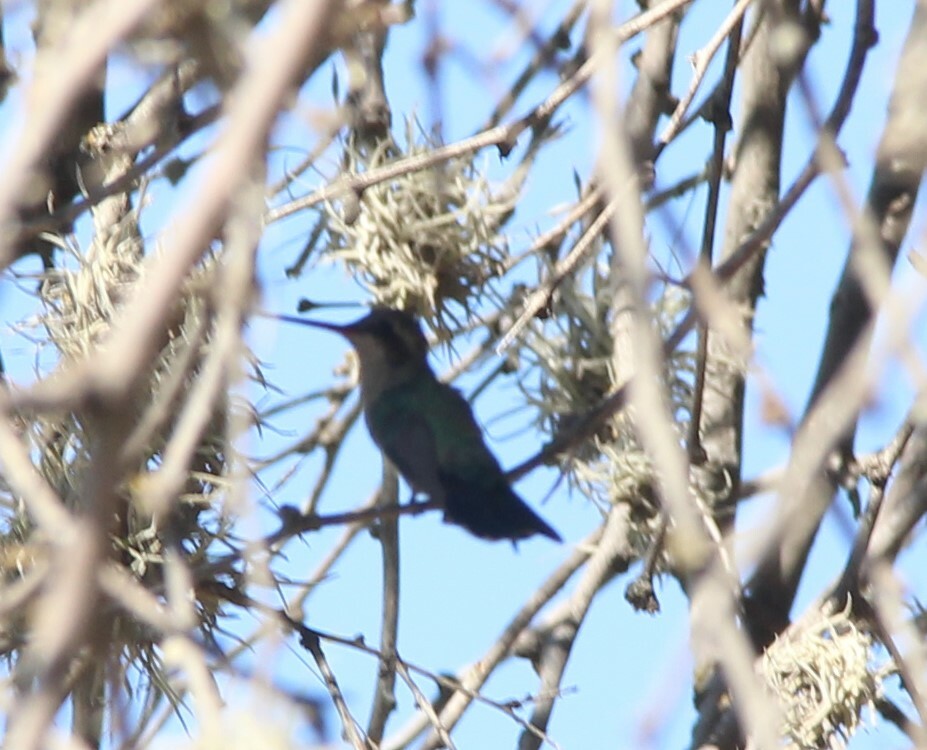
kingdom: Animalia
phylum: Chordata
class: Aves
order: Apodiformes
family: Trochilidae
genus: Cynanthus
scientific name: Cynanthus latirostris
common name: Broad-billed hummingbird
